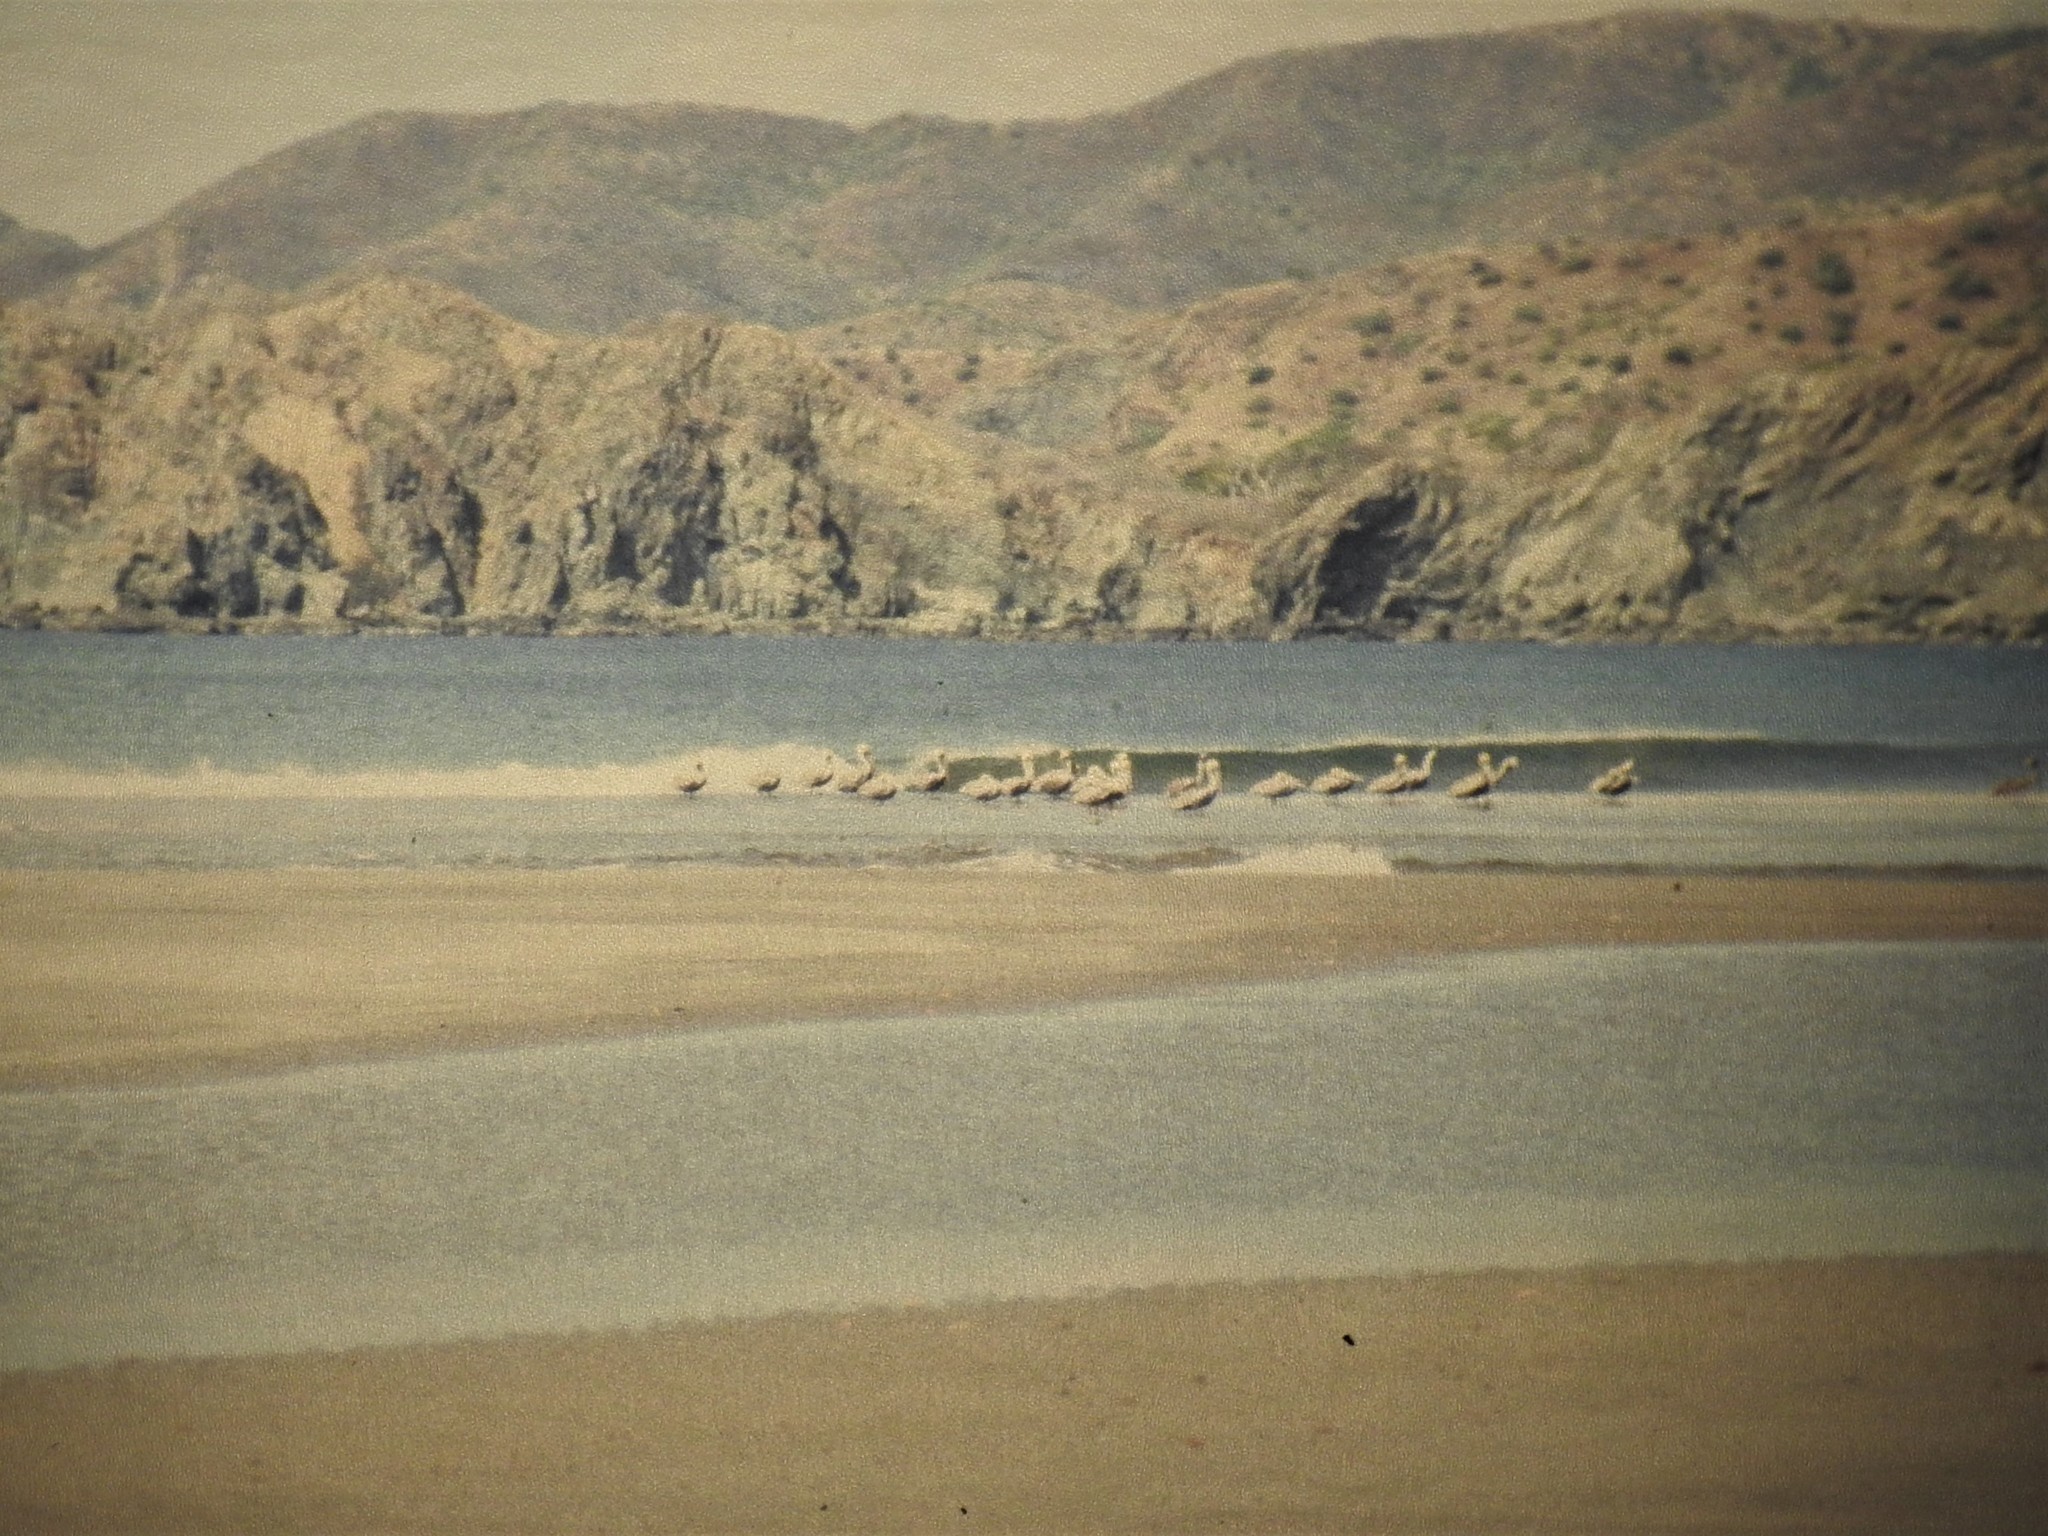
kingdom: Animalia
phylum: Chordata
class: Aves
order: Pelecaniformes
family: Pelecanidae
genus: Pelecanus
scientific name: Pelecanus occidentalis
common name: Brown pelican
